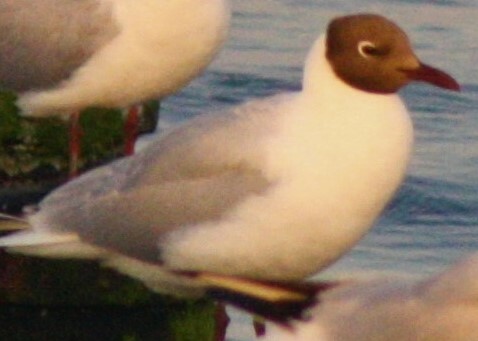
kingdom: Animalia
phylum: Chordata
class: Aves
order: Charadriiformes
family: Laridae
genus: Chroicocephalus
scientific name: Chroicocephalus ridibundus
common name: Black-headed gull
